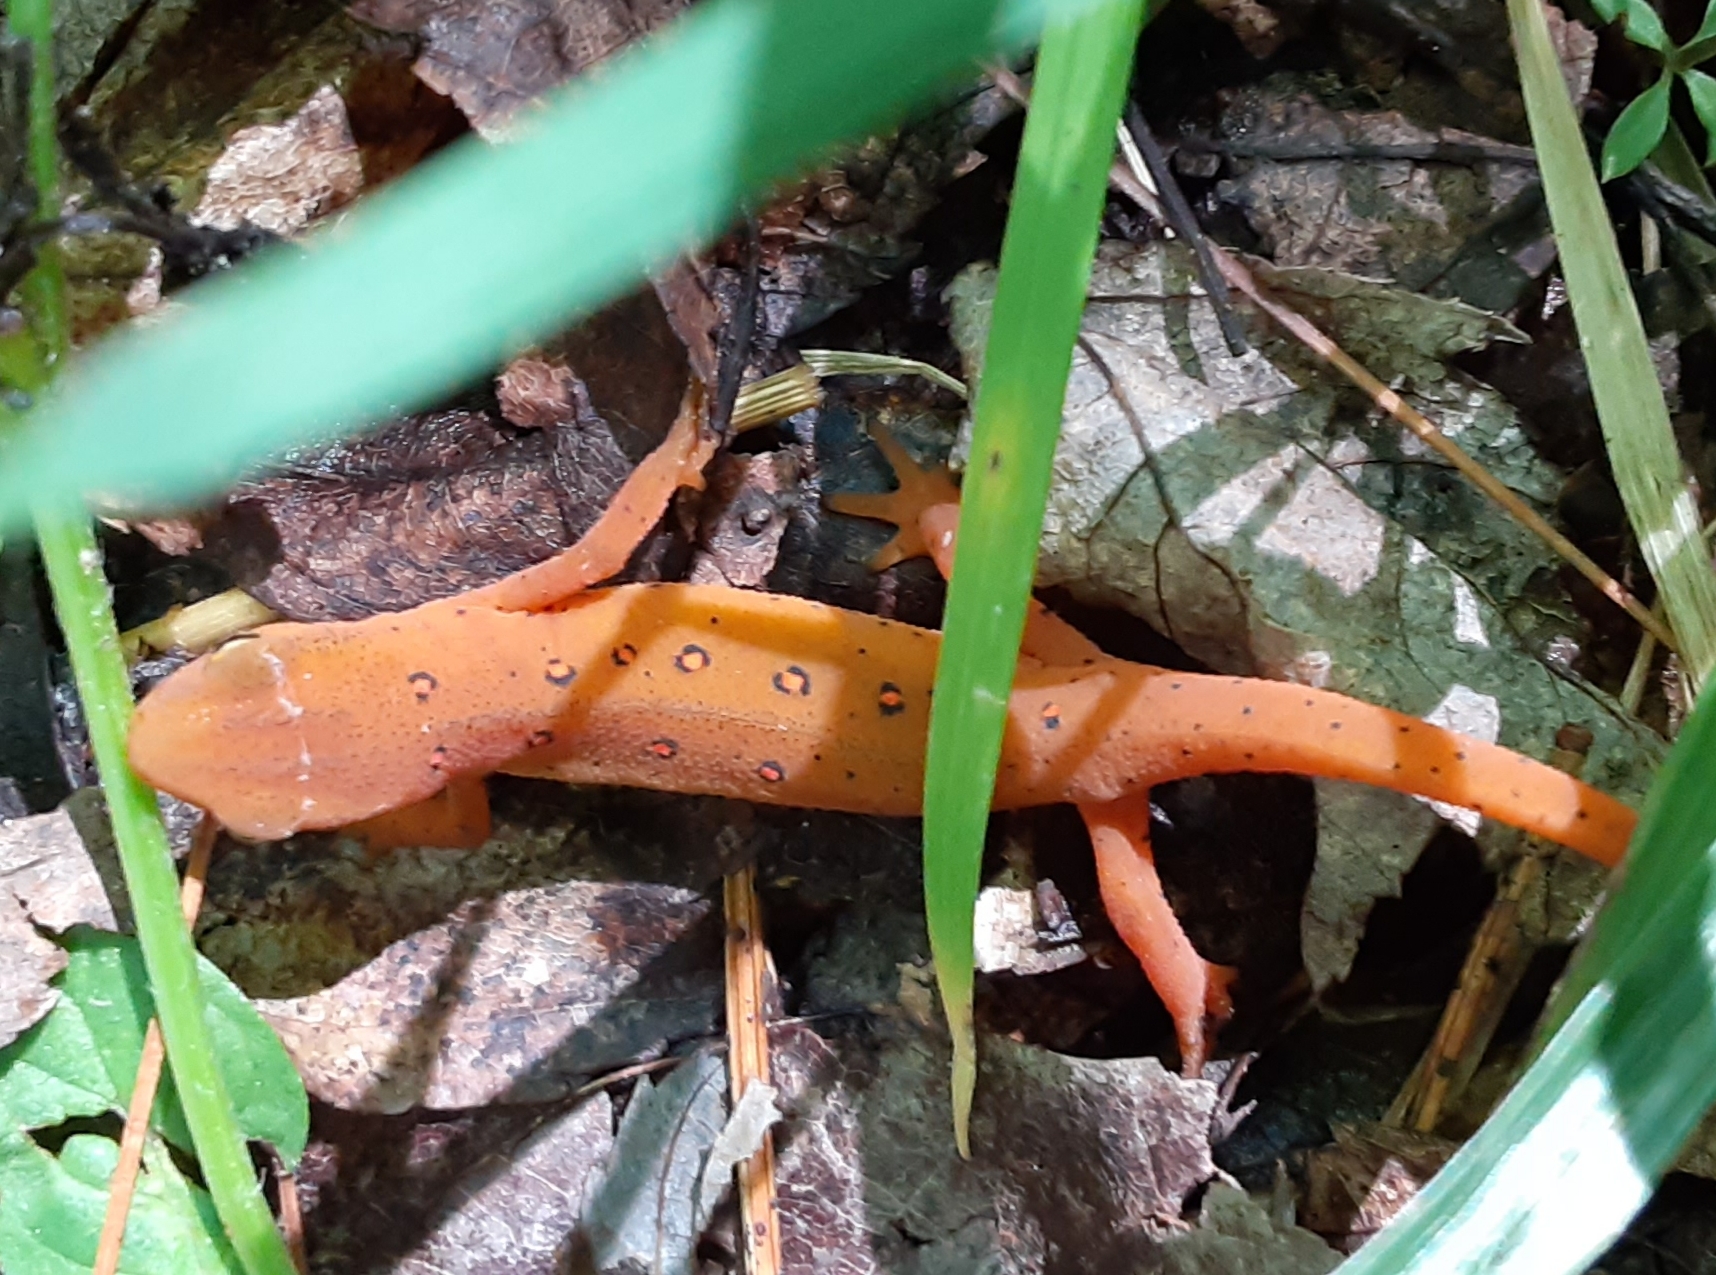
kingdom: Animalia
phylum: Chordata
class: Amphibia
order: Caudata
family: Salamandridae
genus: Notophthalmus
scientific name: Notophthalmus viridescens
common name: Eastern newt
